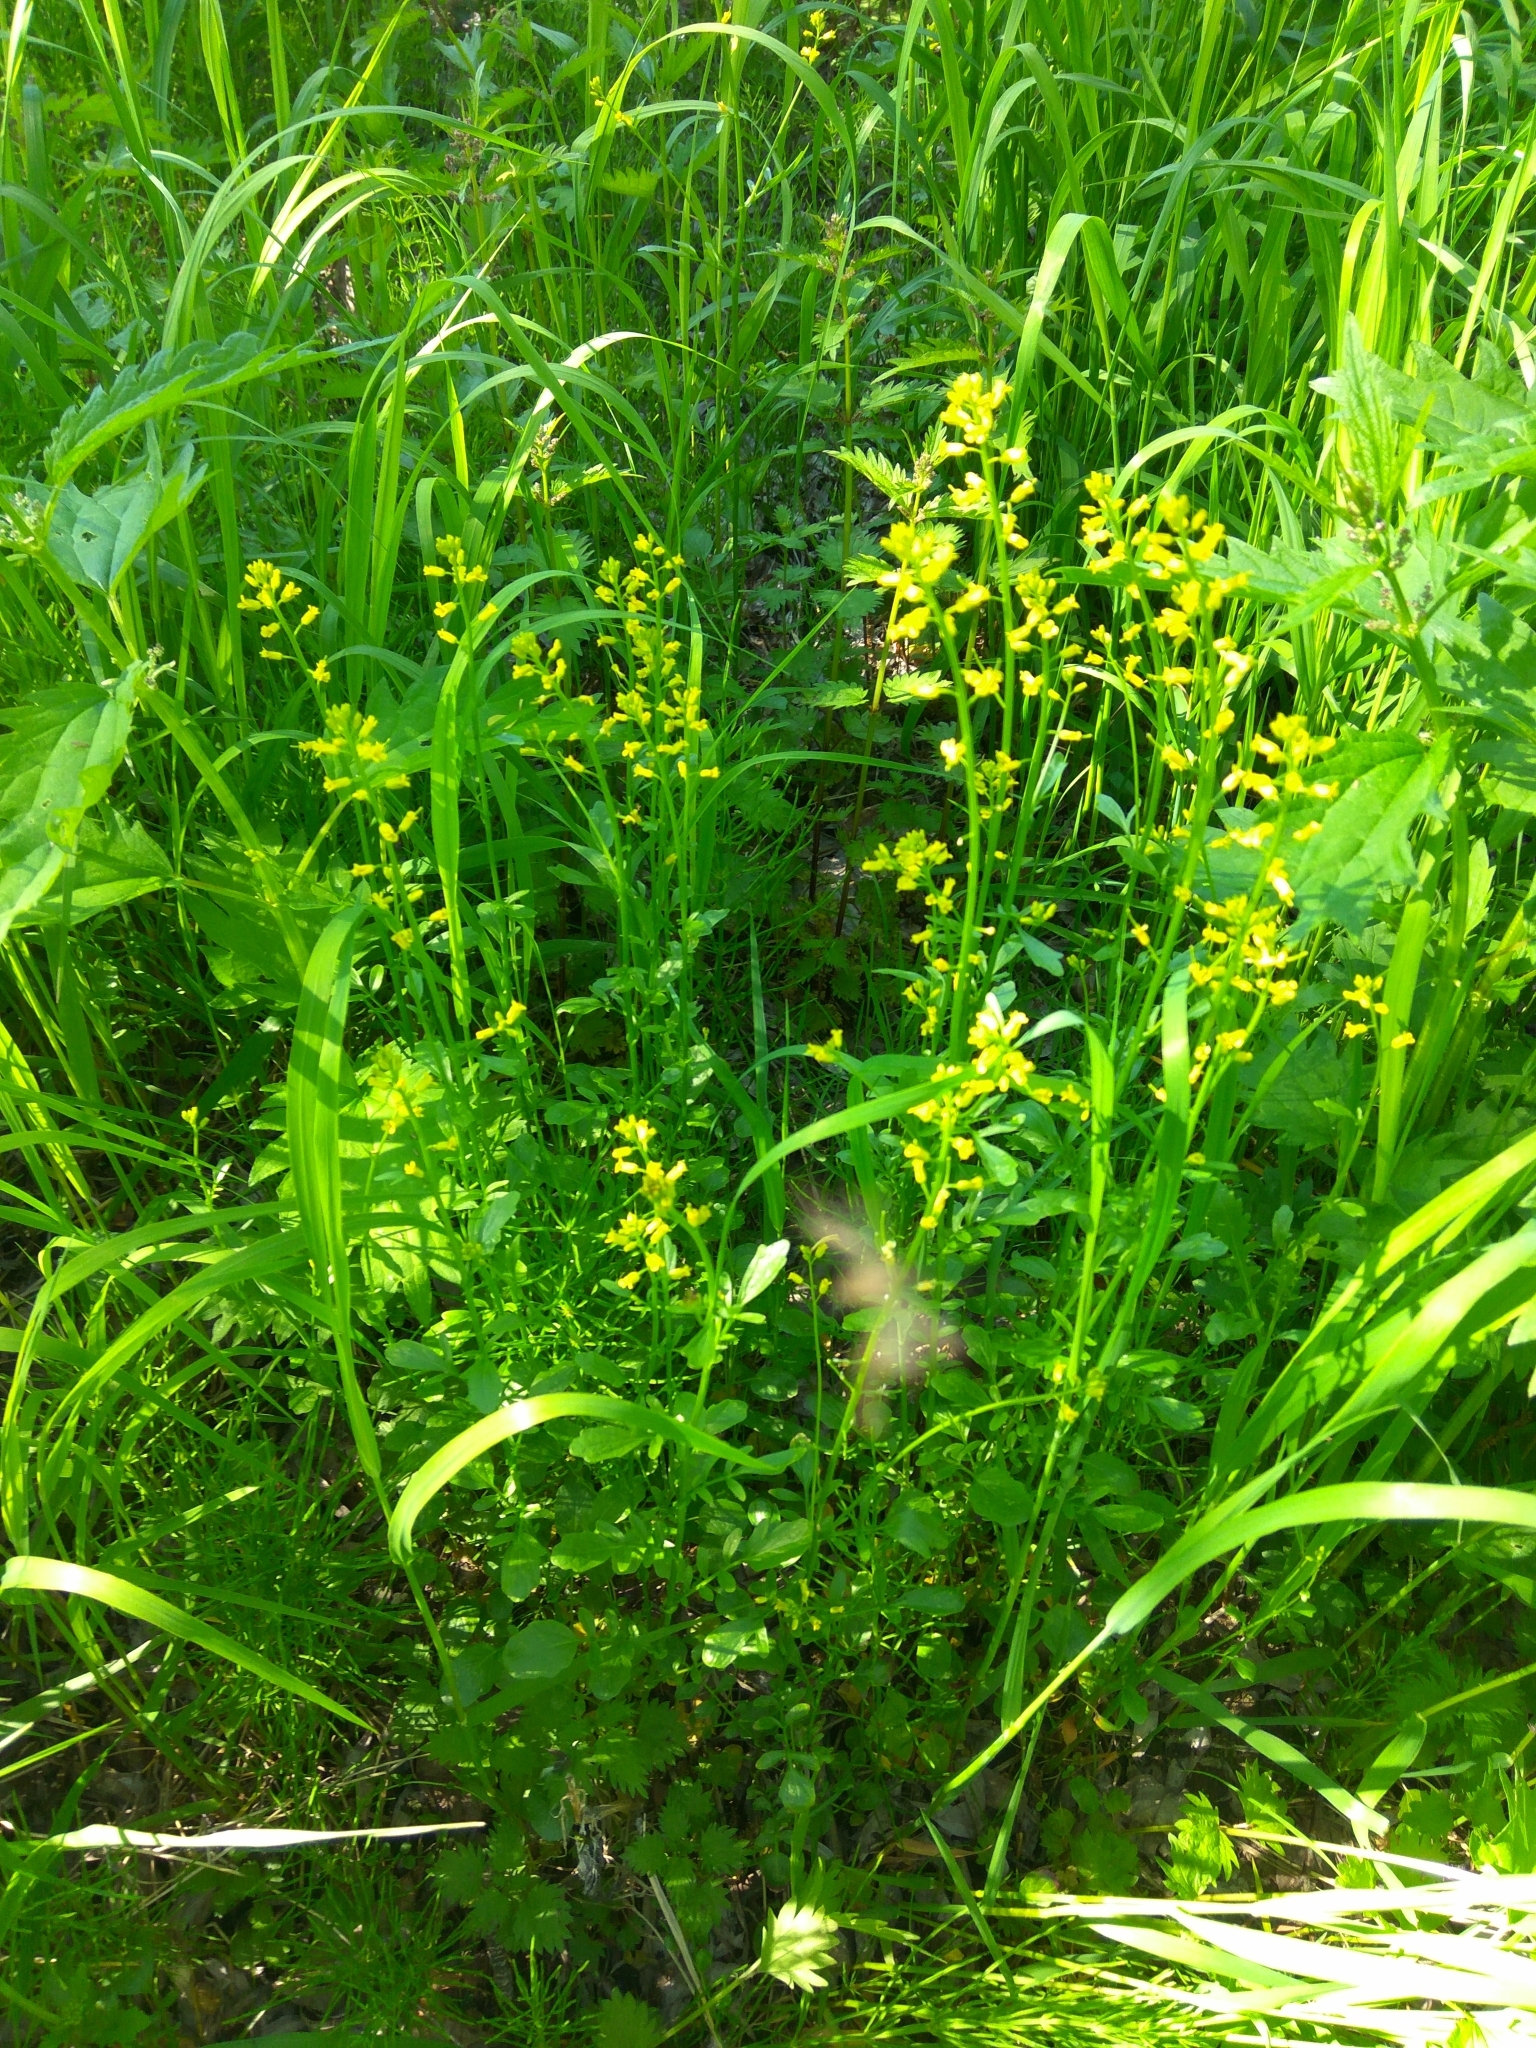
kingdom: Plantae
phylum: Tracheophyta
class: Magnoliopsida
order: Brassicales
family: Brassicaceae
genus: Barbarea
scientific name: Barbarea orthoceras
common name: American wintercress
